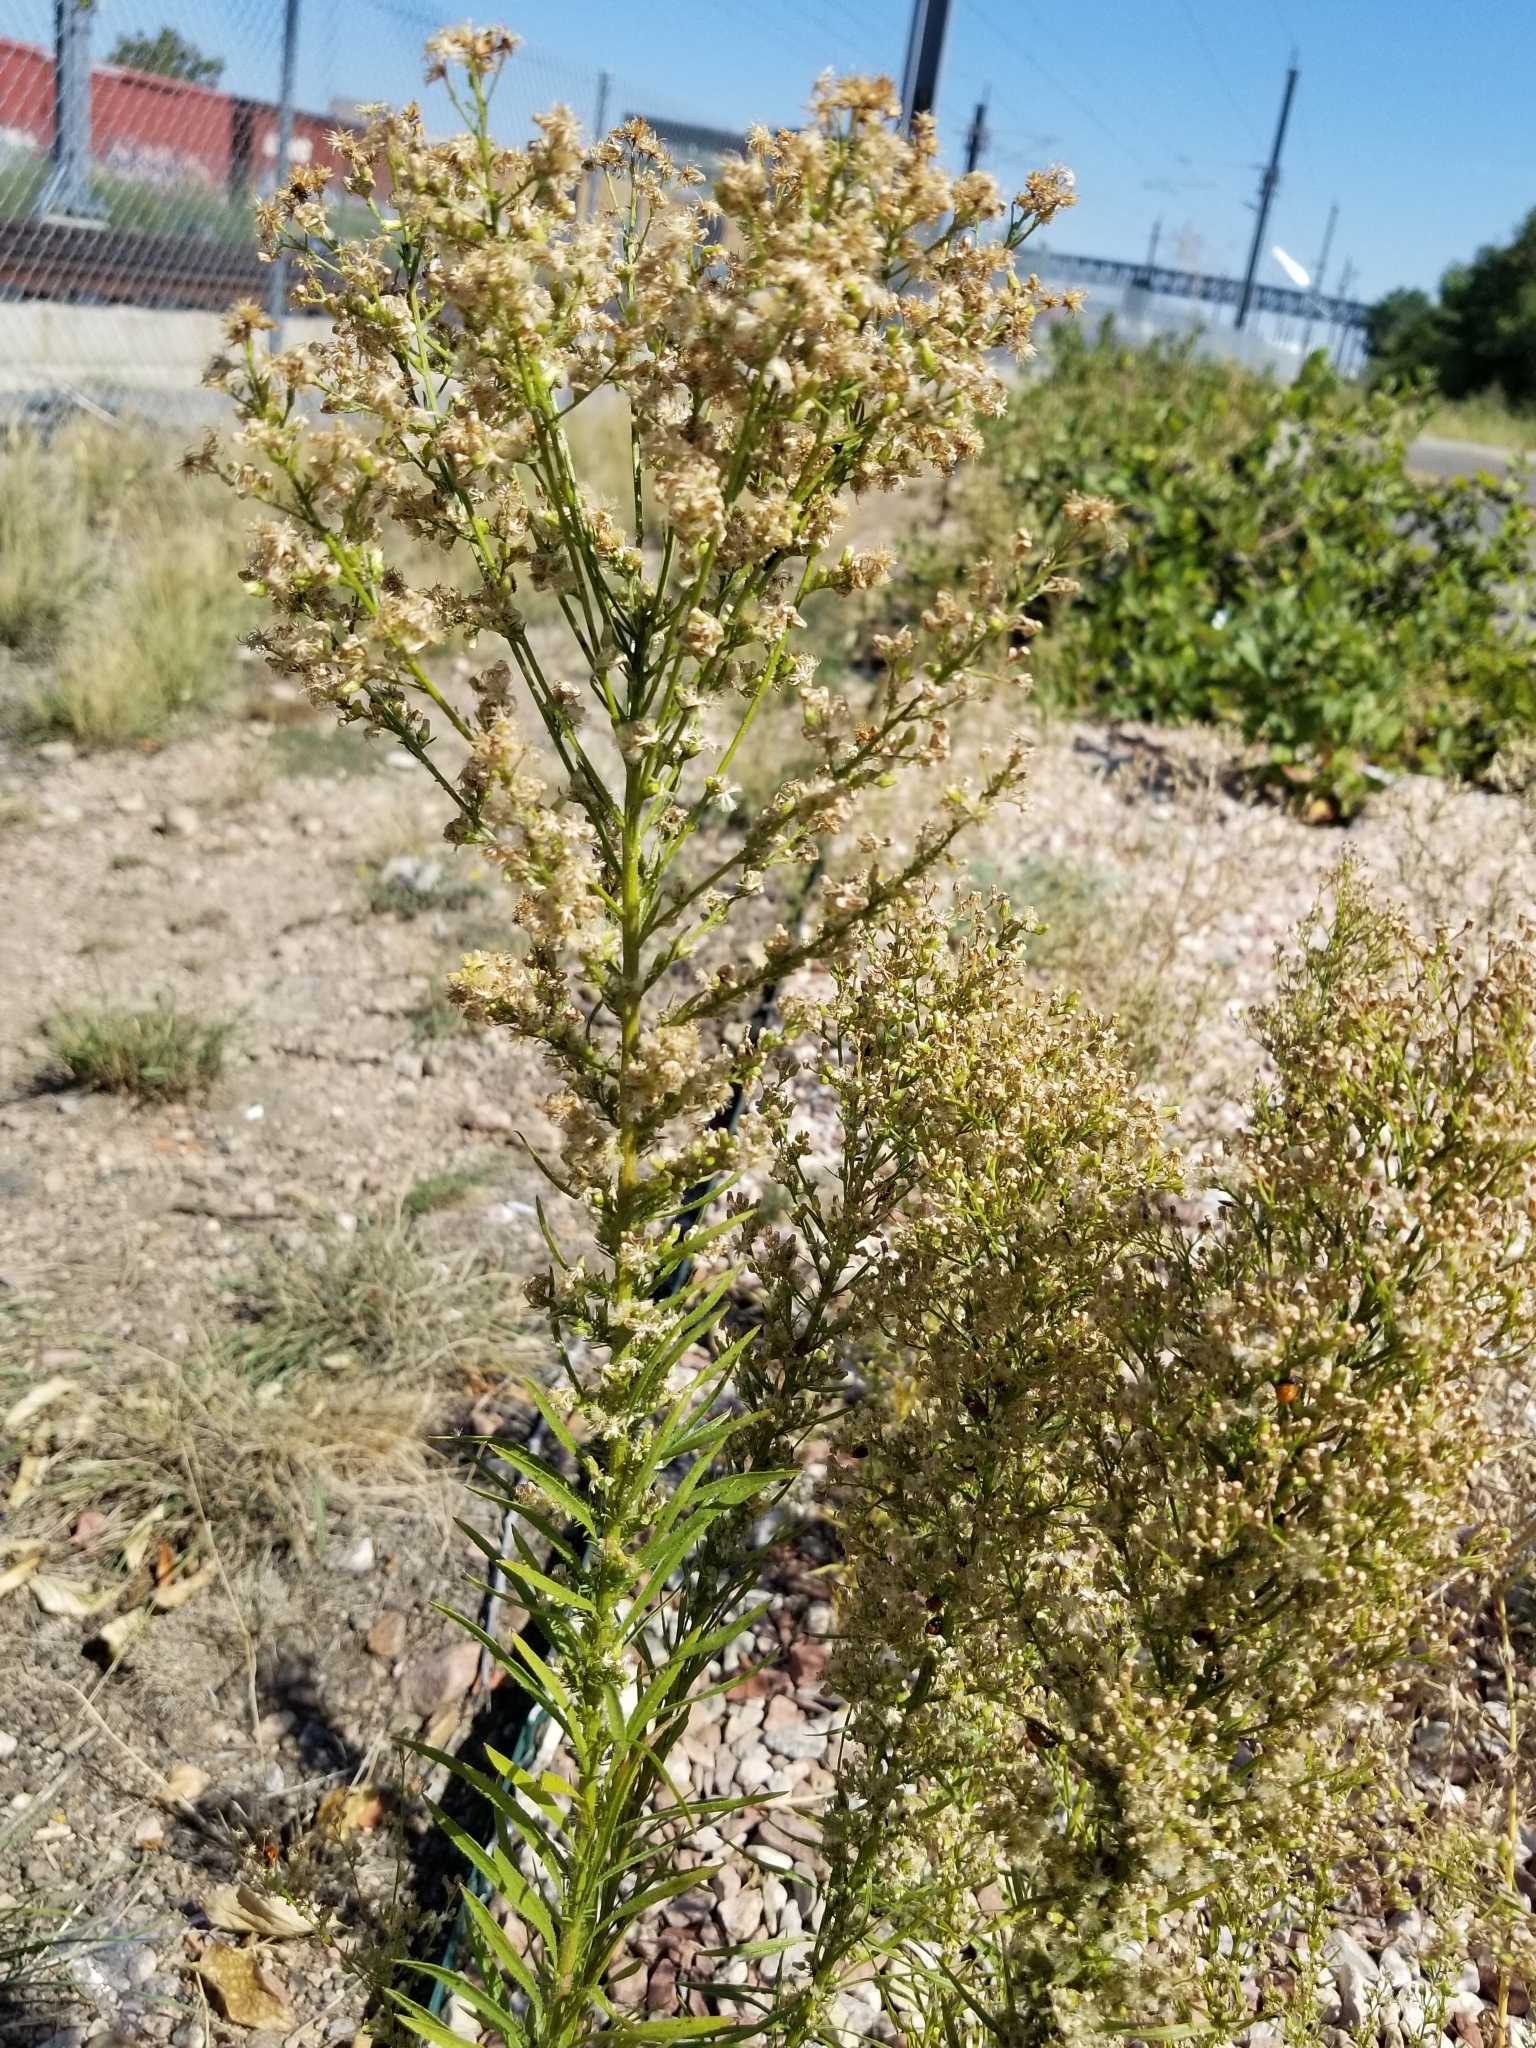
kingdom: Plantae
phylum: Tracheophyta
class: Magnoliopsida
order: Asterales
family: Asteraceae
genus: Erigeron
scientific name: Erigeron canadensis
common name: Canadian fleabane
